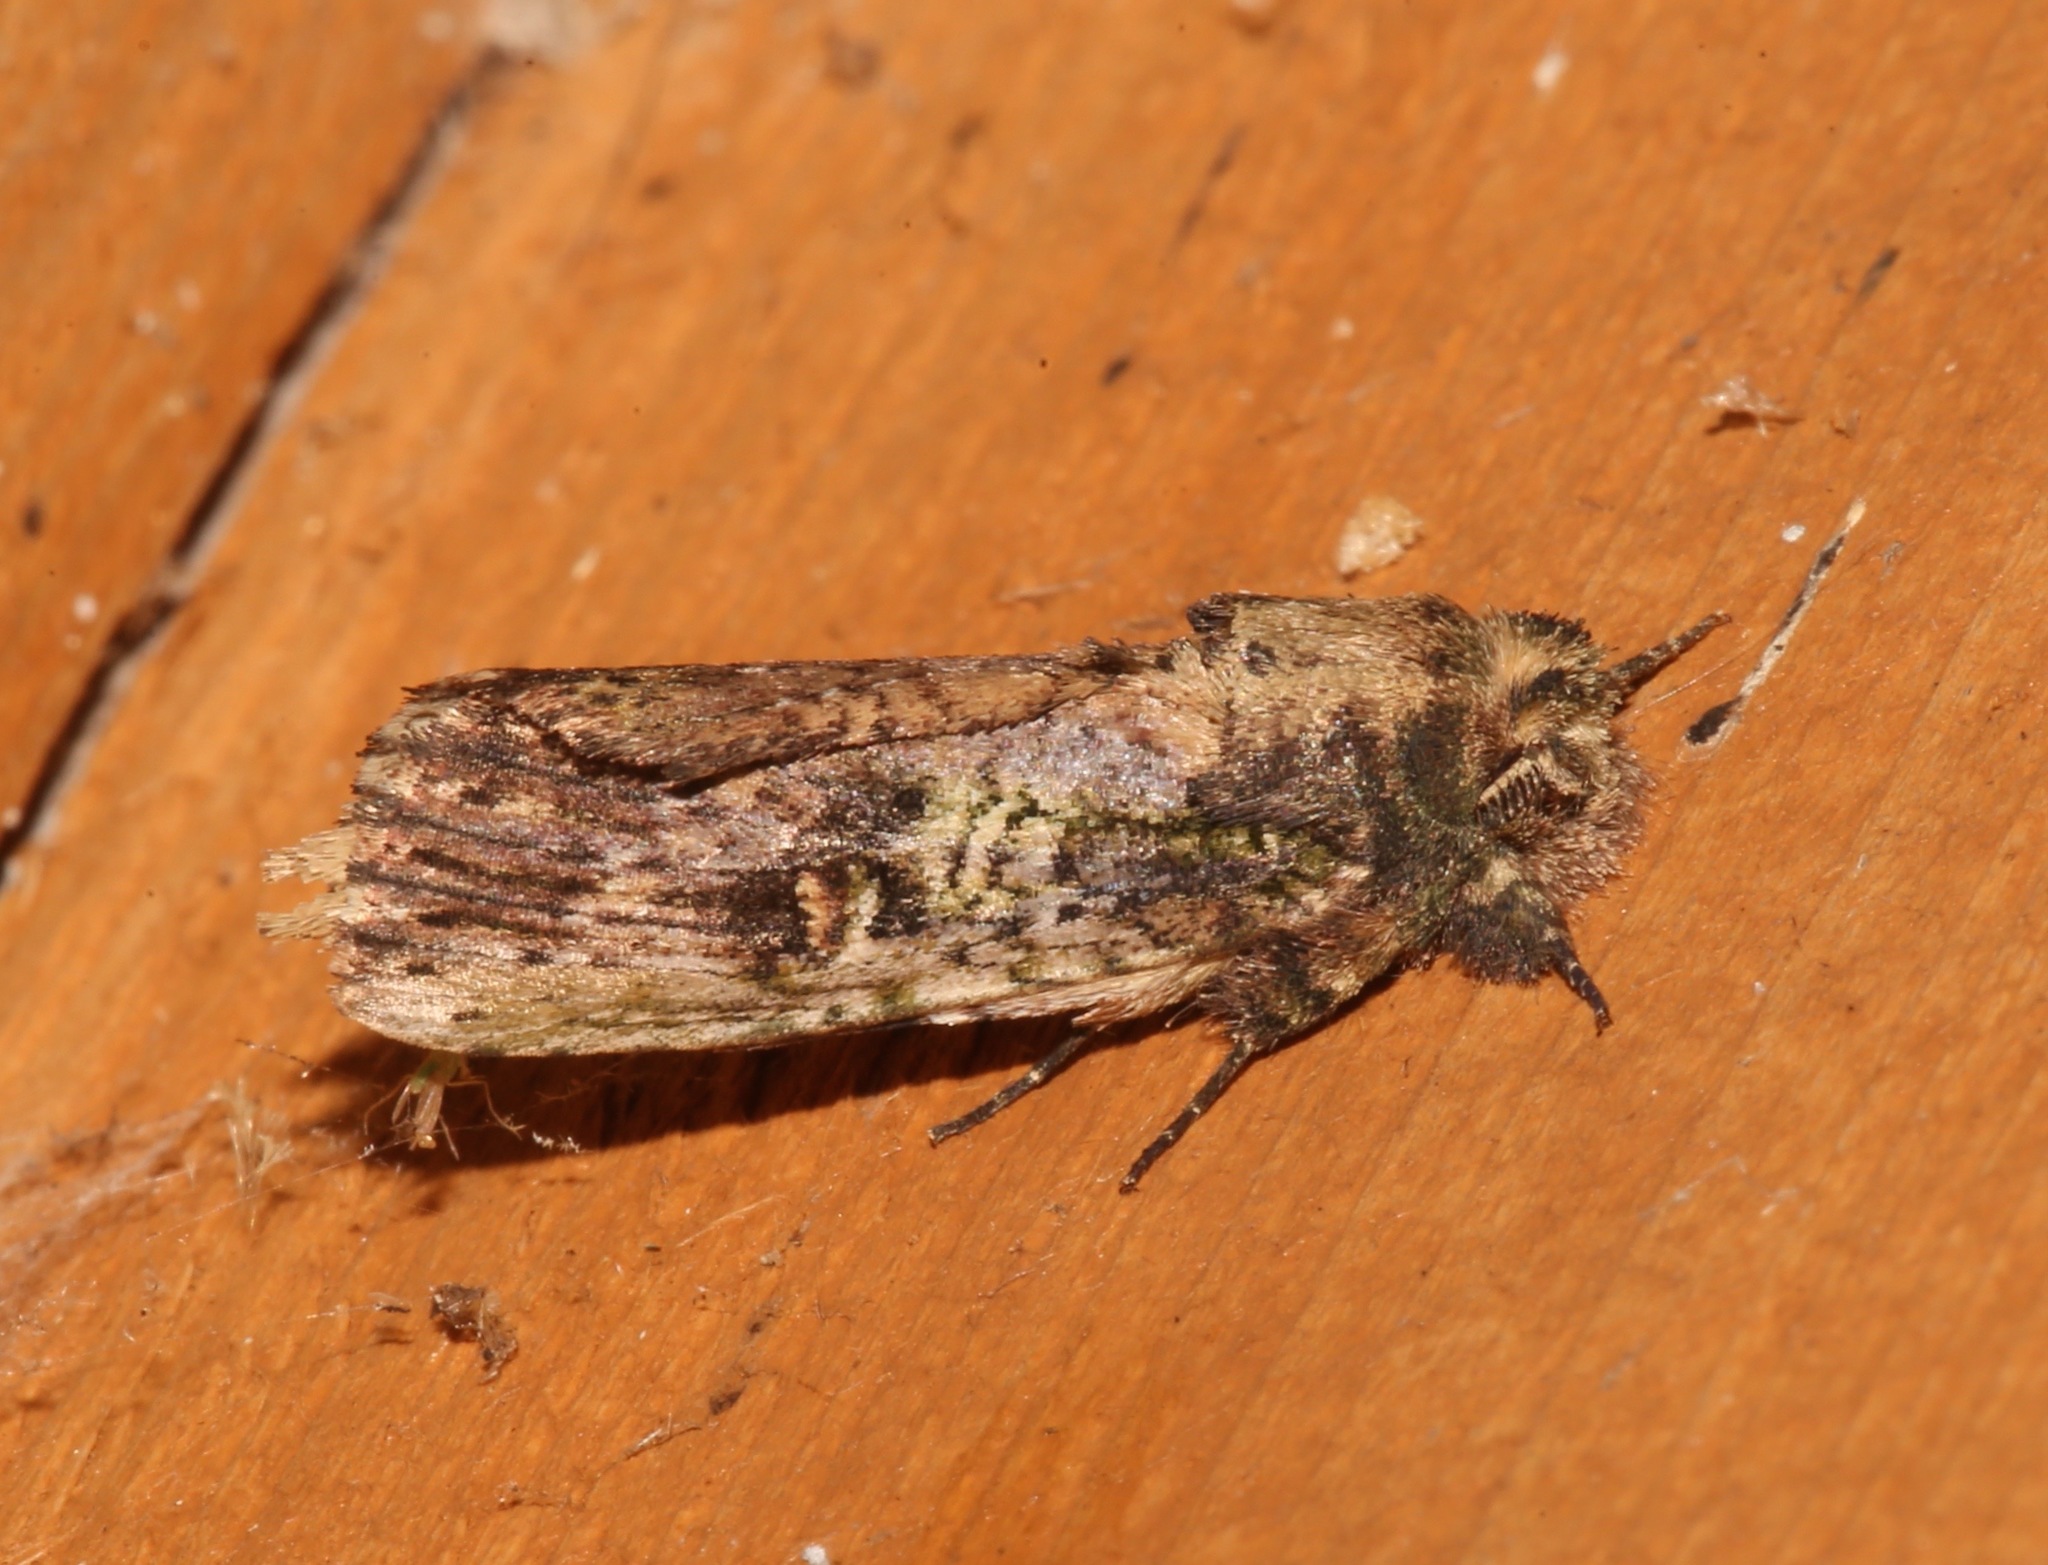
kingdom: Animalia
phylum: Arthropoda
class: Insecta
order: Lepidoptera
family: Notodontidae
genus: Schizura
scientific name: Schizura ipomaeae
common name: Morning-glory prominent
